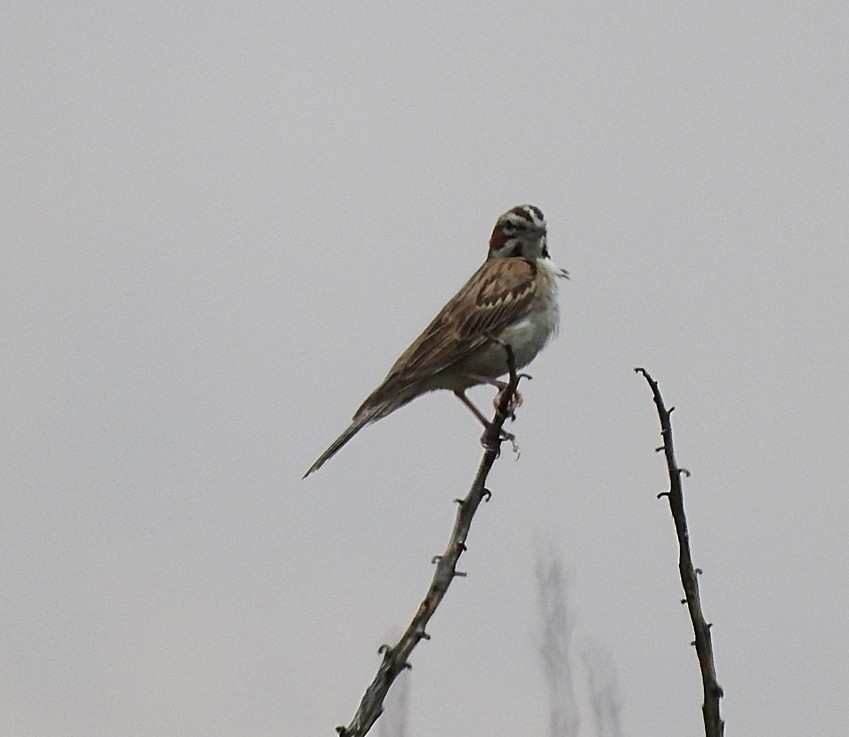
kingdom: Animalia
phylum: Chordata
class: Aves
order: Passeriformes
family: Passerellidae
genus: Chondestes
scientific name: Chondestes grammacus
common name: Lark sparrow
